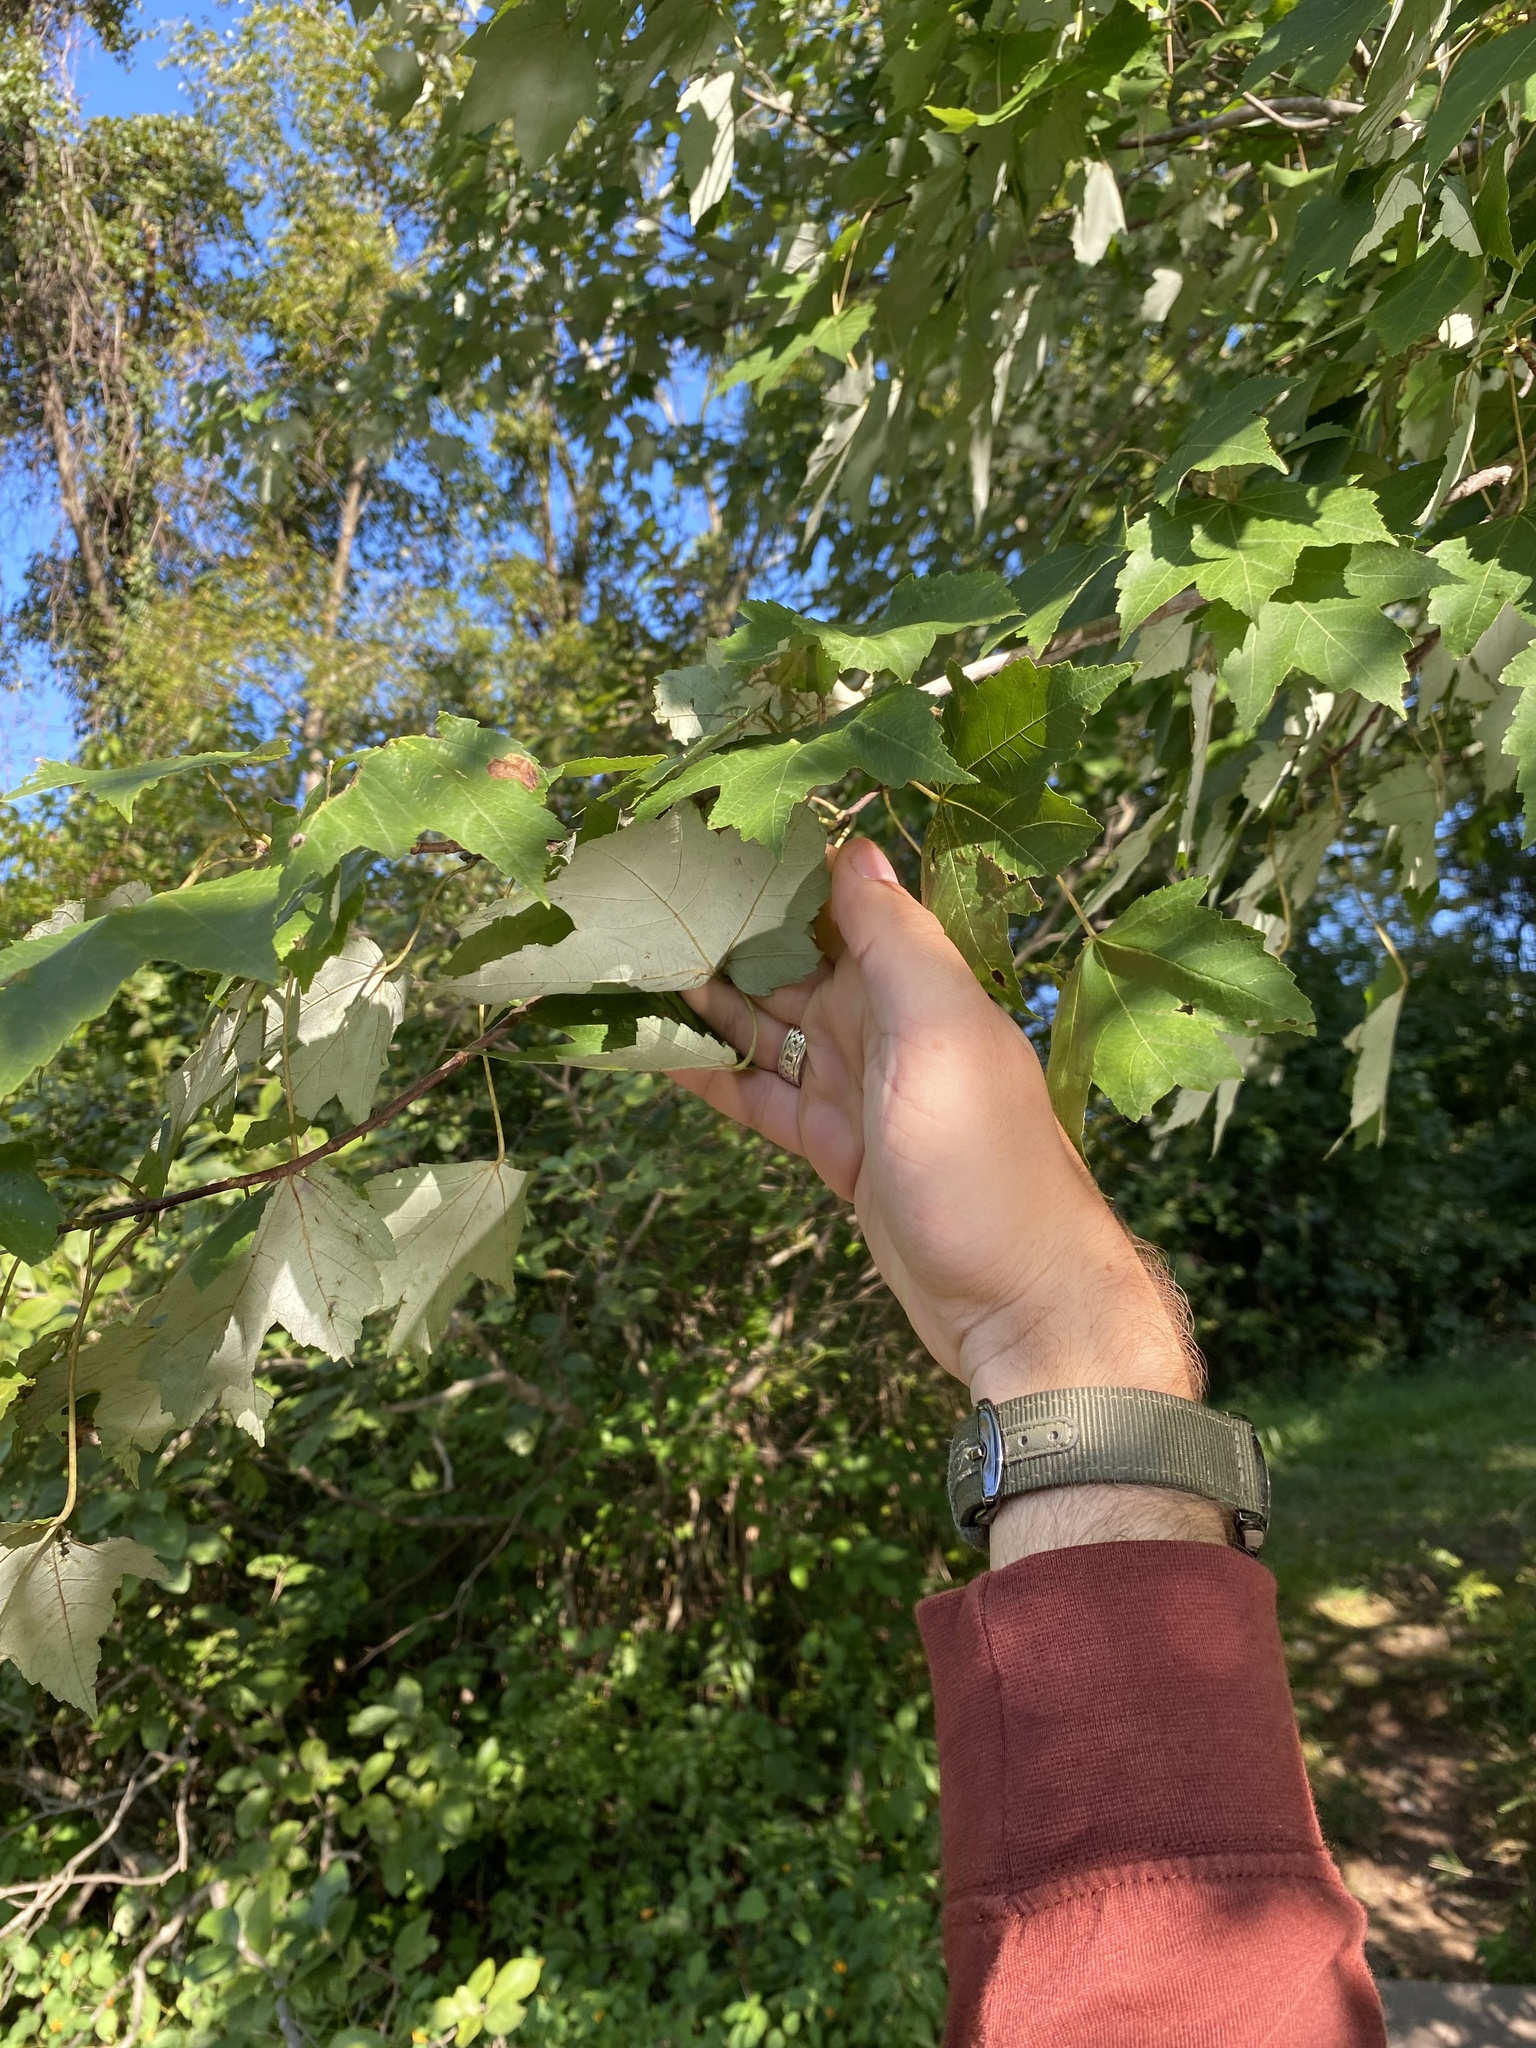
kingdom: Plantae
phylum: Tracheophyta
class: Magnoliopsida
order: Sapindales
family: Sapindaceae
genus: Acer
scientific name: Acer rubrum
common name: Red maple
